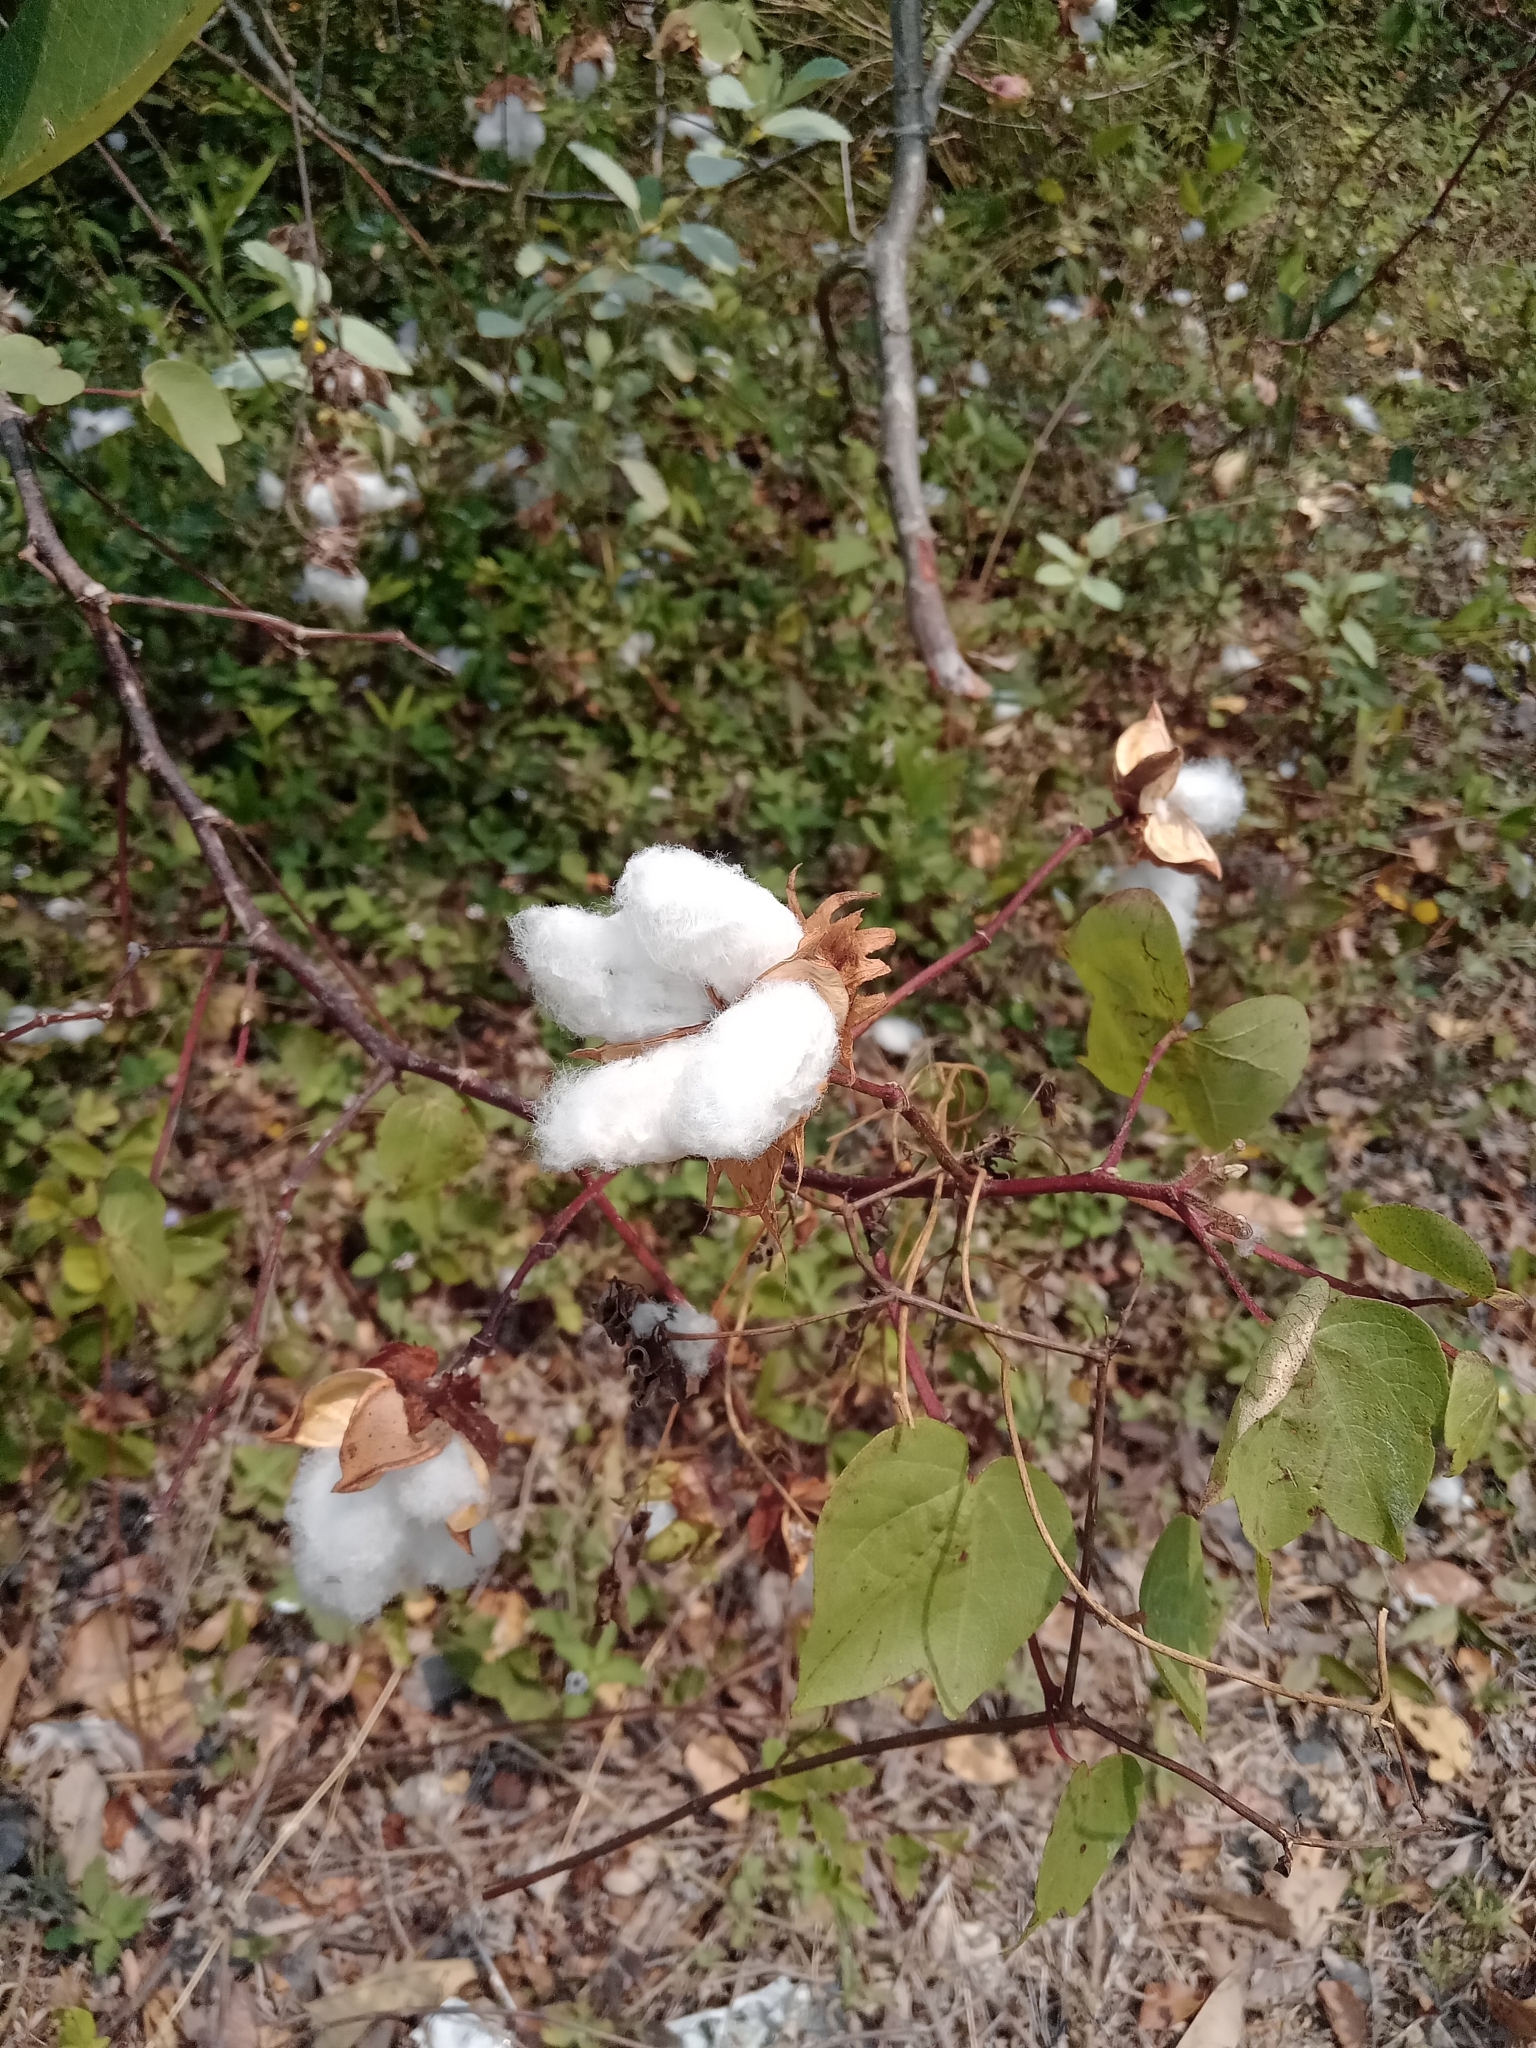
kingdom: Plantae
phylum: Tracheophyta
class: Magnoliopsida
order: Malvales
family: Malvaceae
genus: Gossypium
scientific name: Gossypium hirsutum
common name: Cotton
